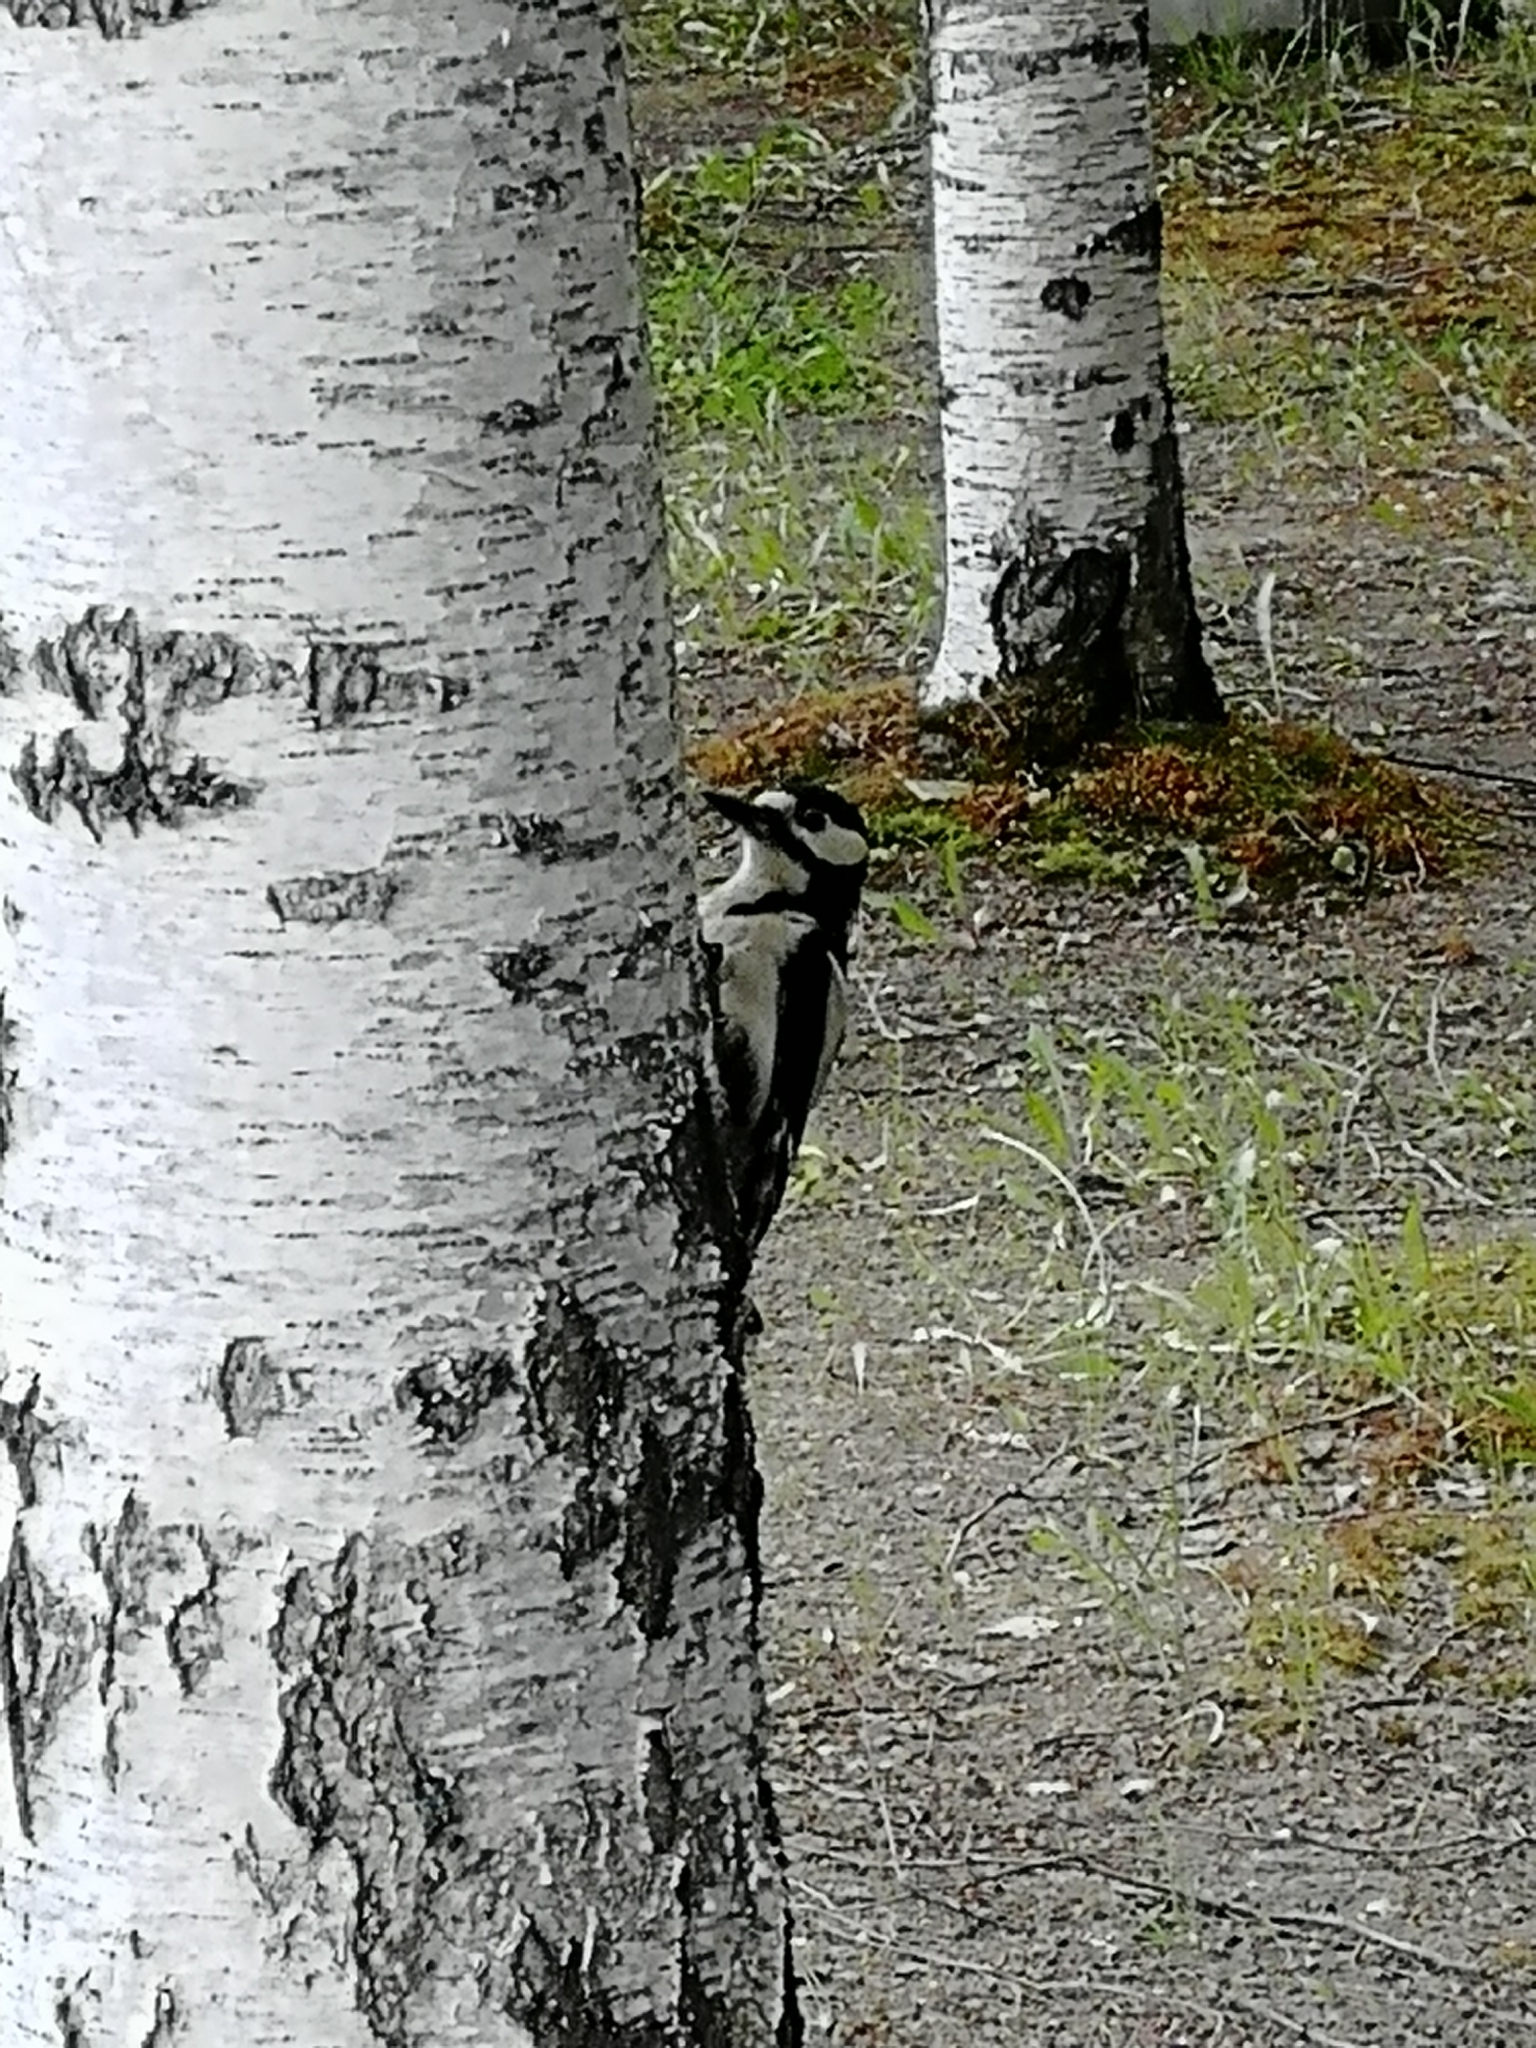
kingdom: Animalia
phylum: Chordata
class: Aves
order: Piciformes
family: Picidae
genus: Dendrocopos
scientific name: Dendrocopos major
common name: Great spotted woodpecker
